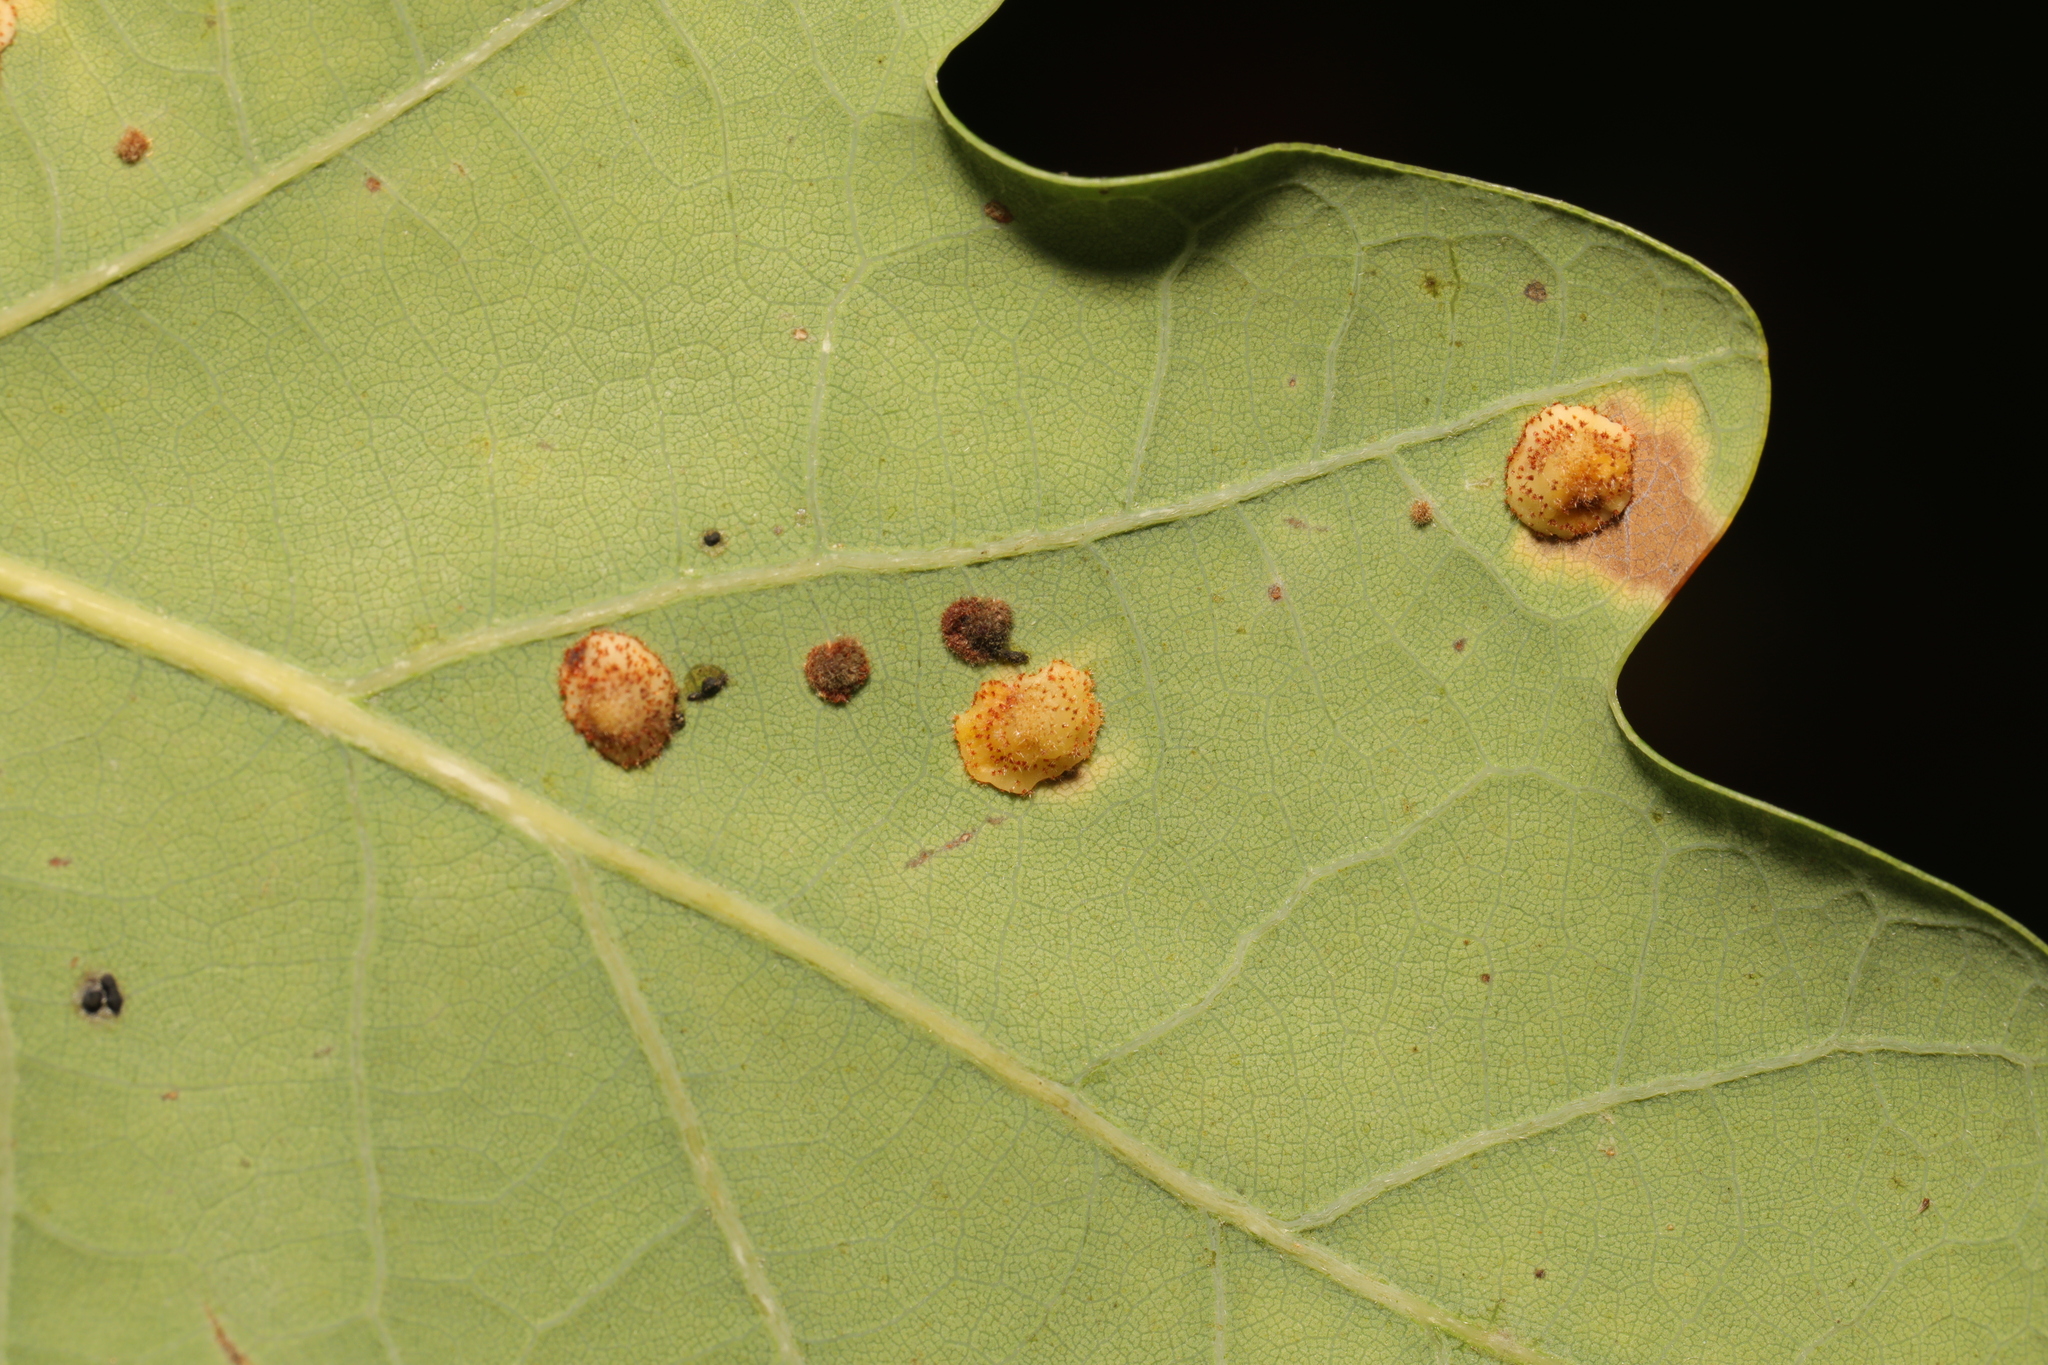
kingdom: Animalia
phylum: Arthropoda
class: Insecta
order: Hymenoptera
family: Cynipidae
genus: Neuroterus
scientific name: Neuroterus quercusbaccarum
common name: Common spangle gall
